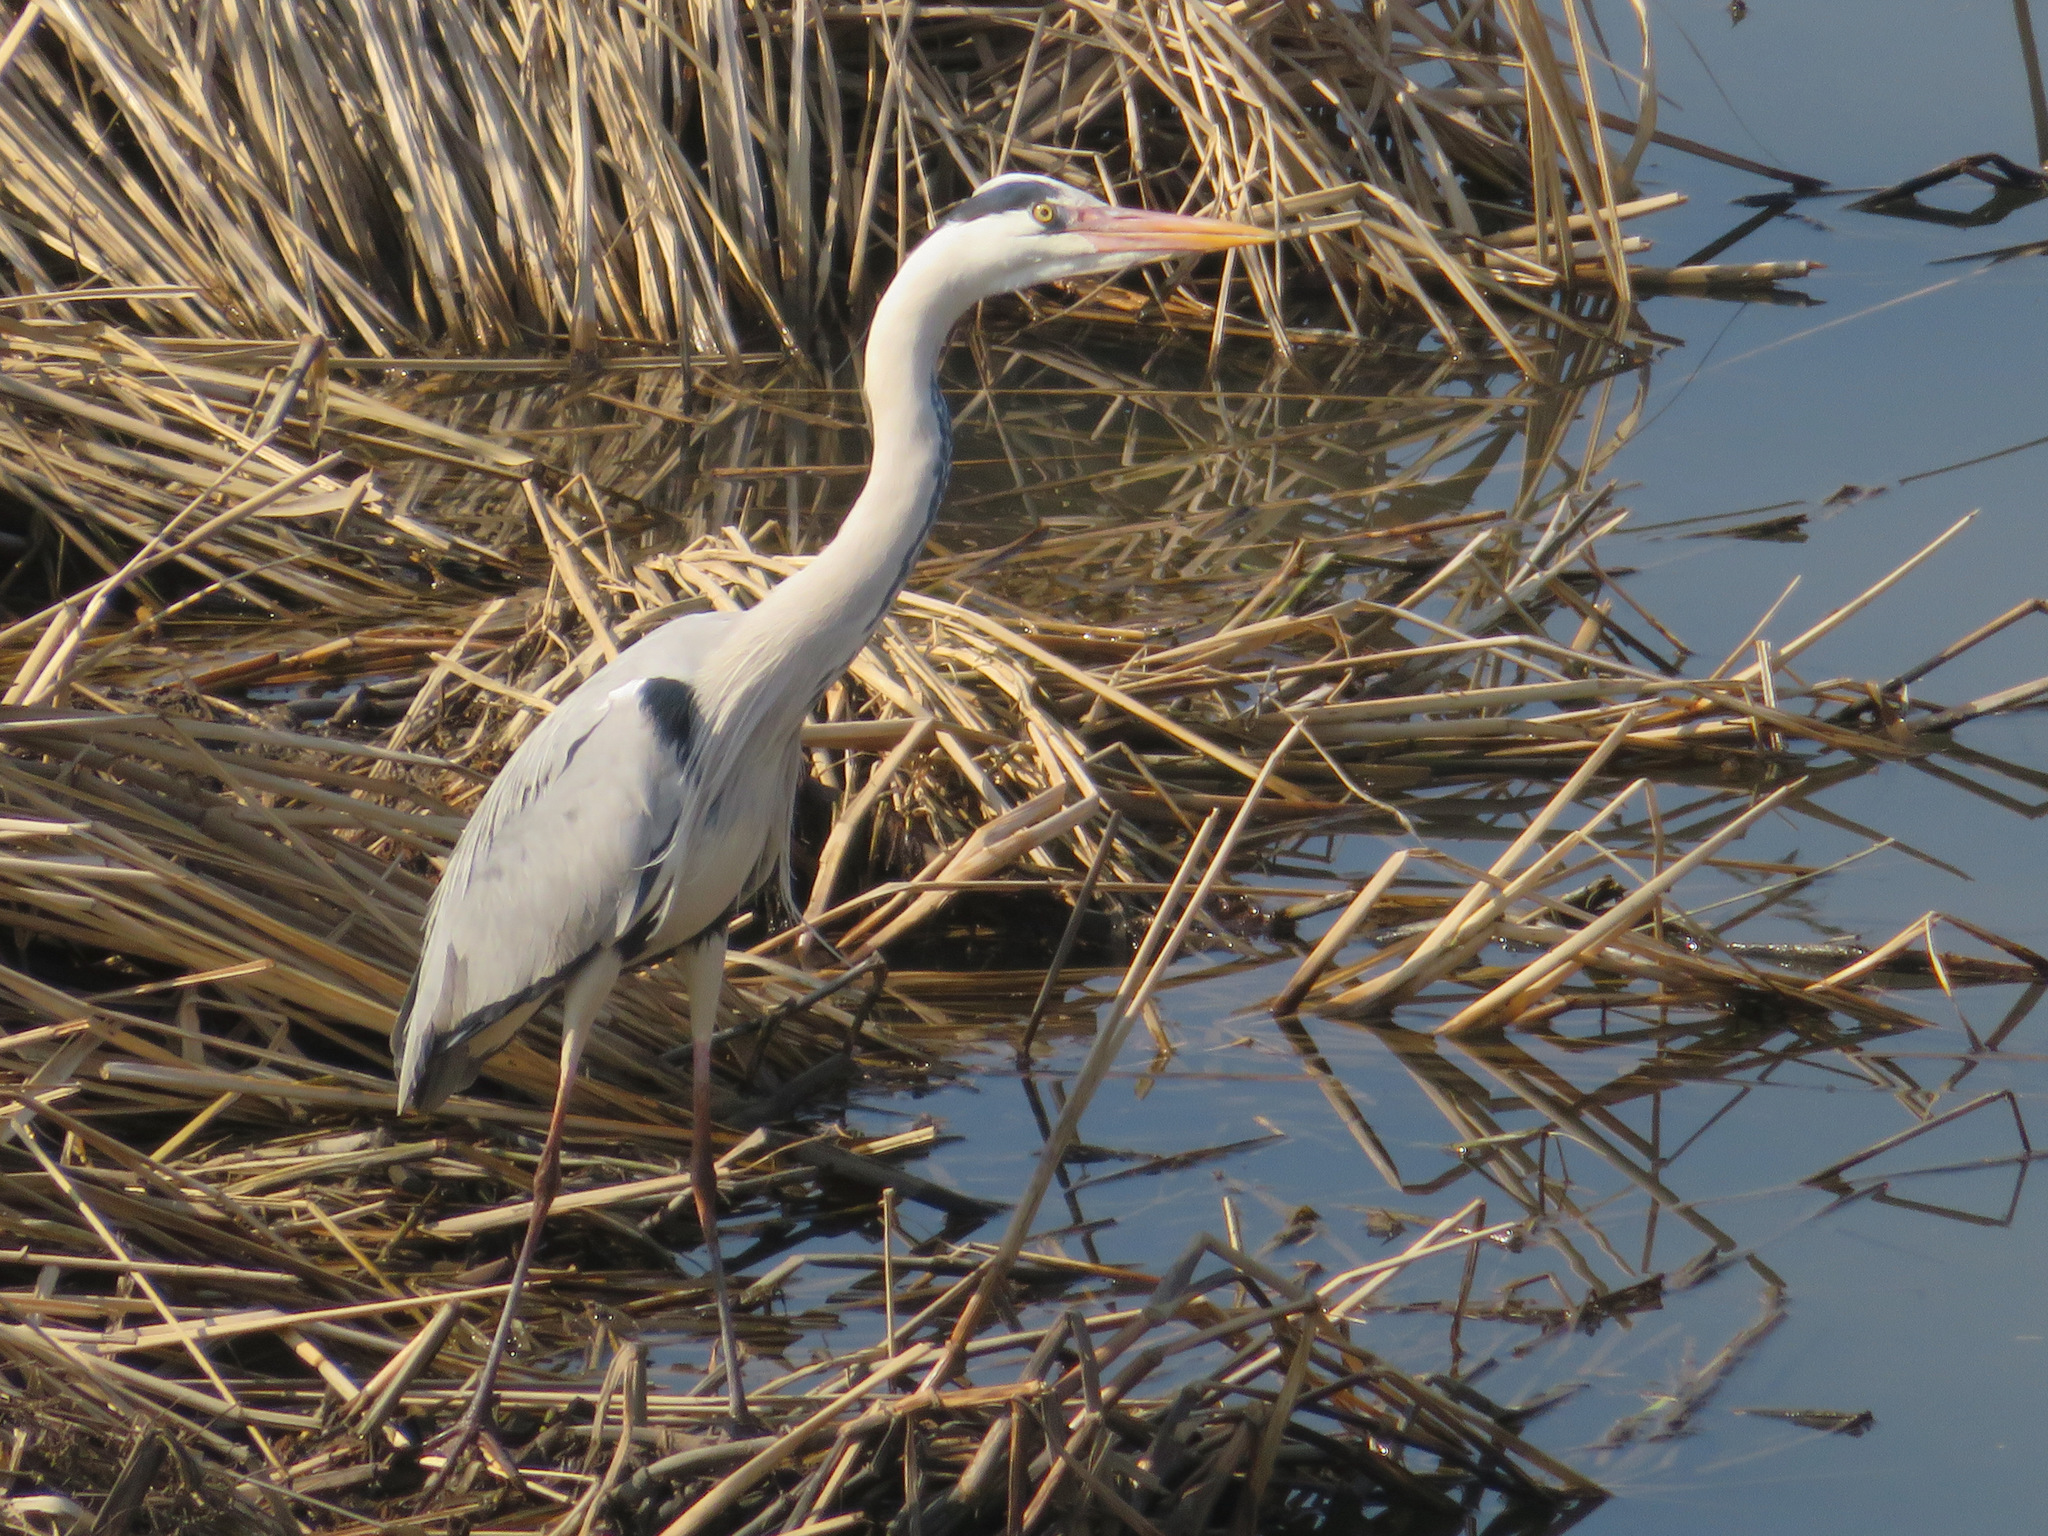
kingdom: Animalia
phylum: Chordata
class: Aves
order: Pelecaniformes
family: Ardeidae
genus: Ardea
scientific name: Ardea cinerea
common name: Grey heron
